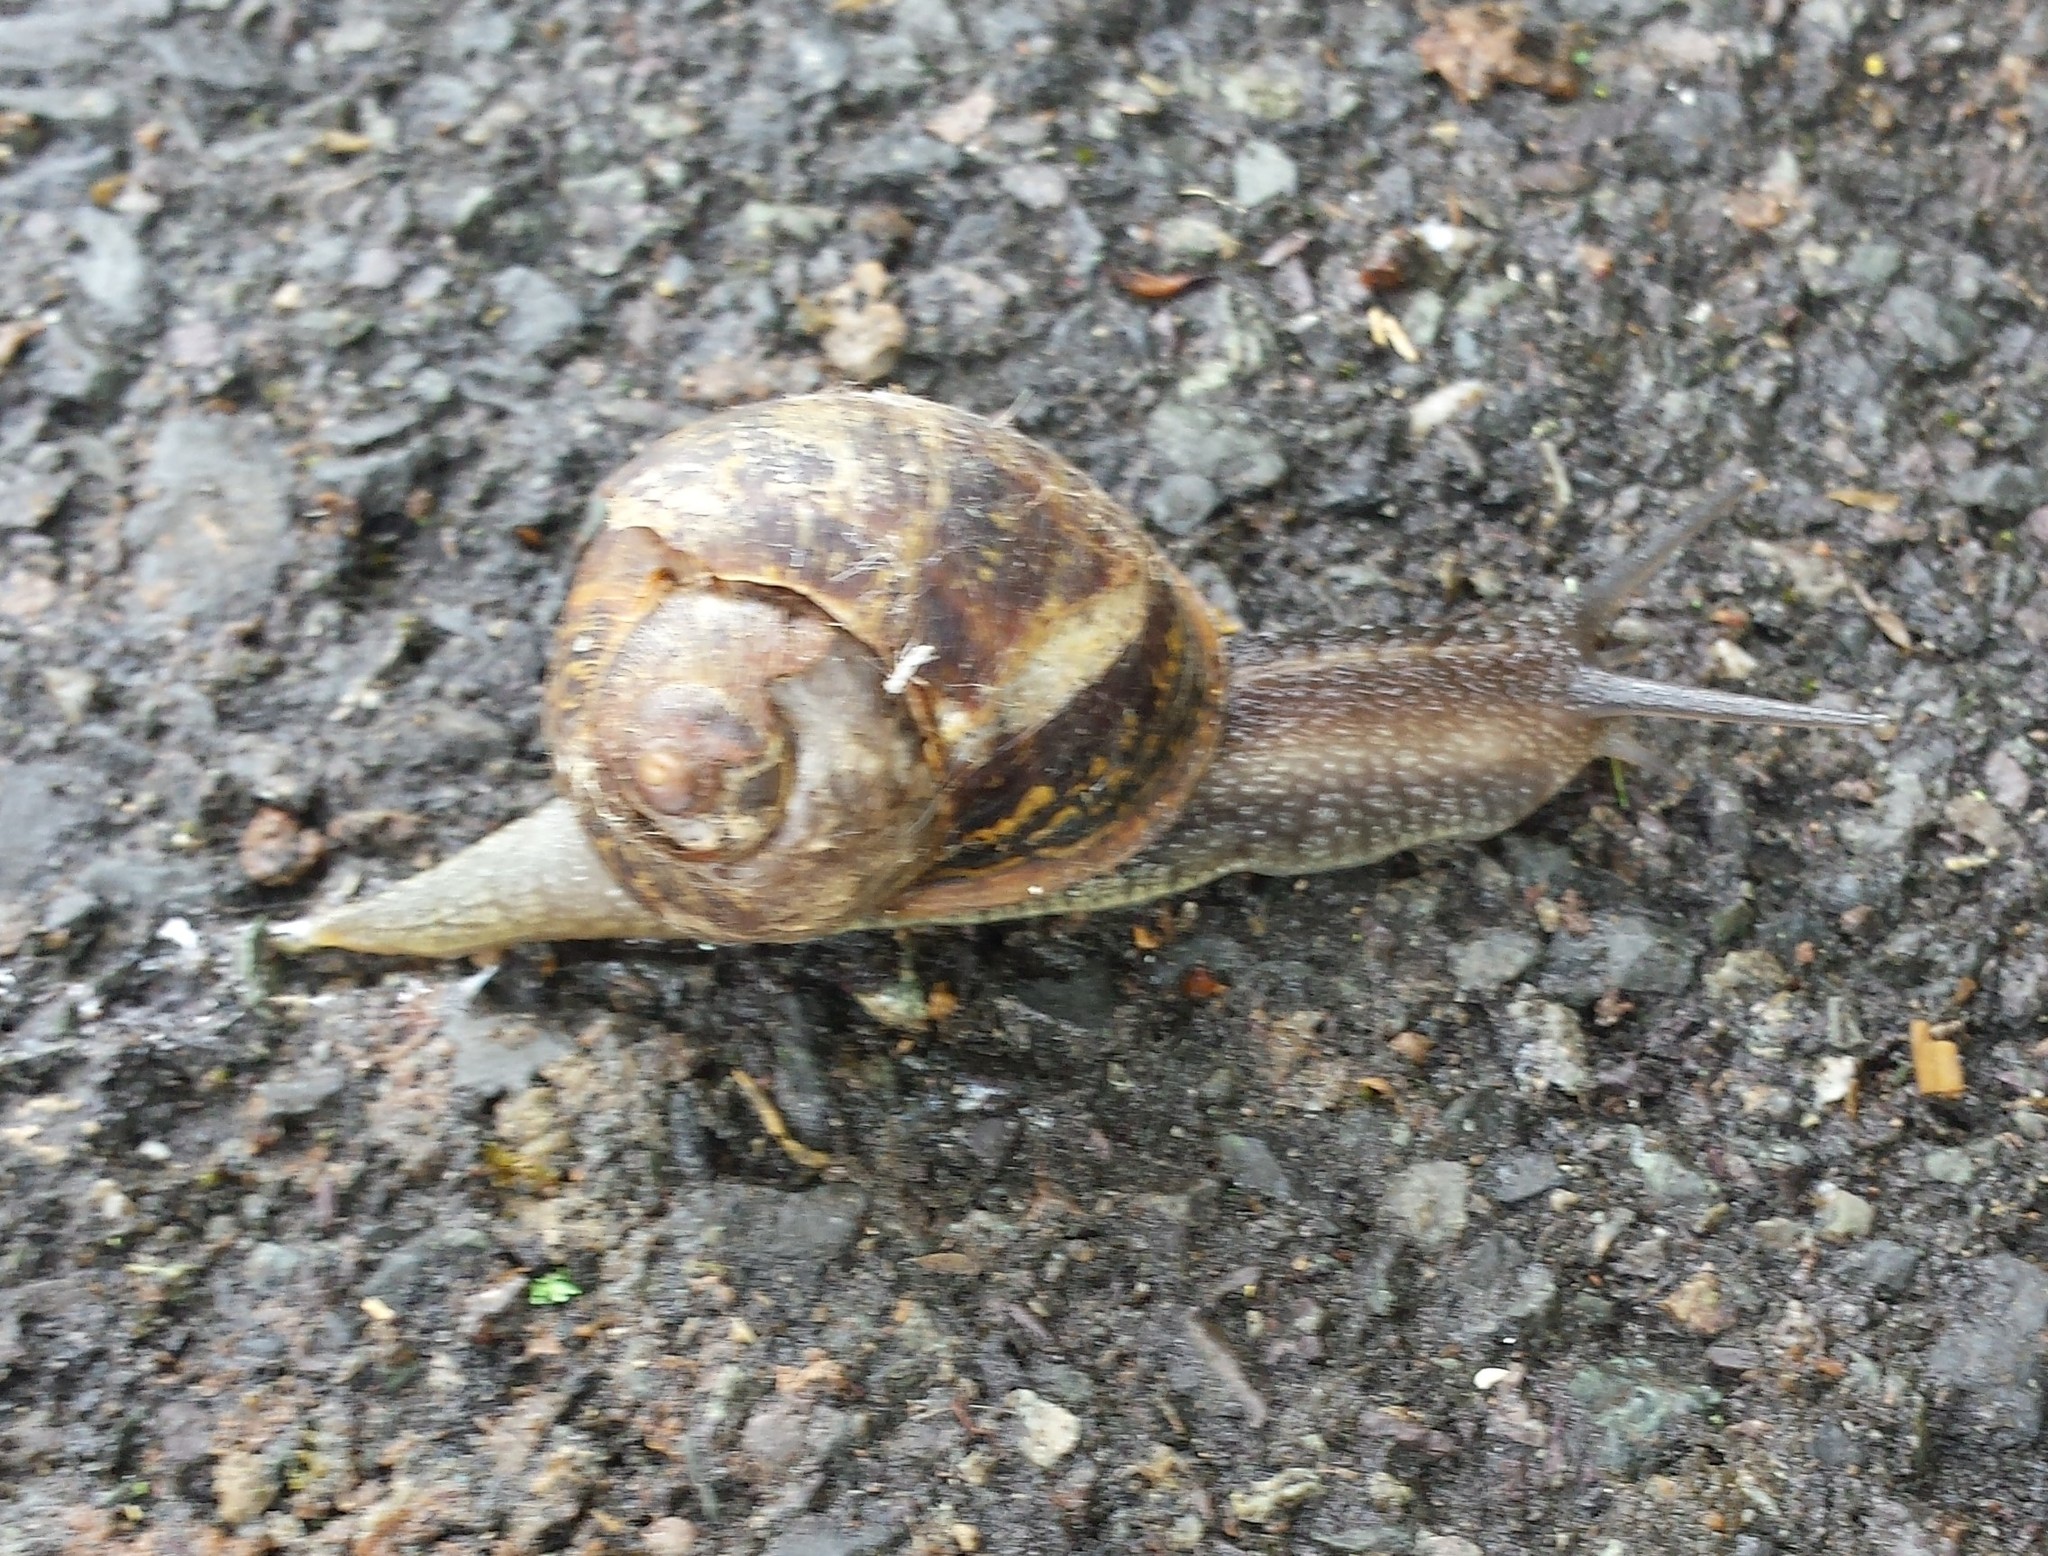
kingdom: Animalia
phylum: Mollusca
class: Gastropoda
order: Stylommatophora
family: Helicidae
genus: Cornu
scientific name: Cornu aspersum
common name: Brown garden snail
